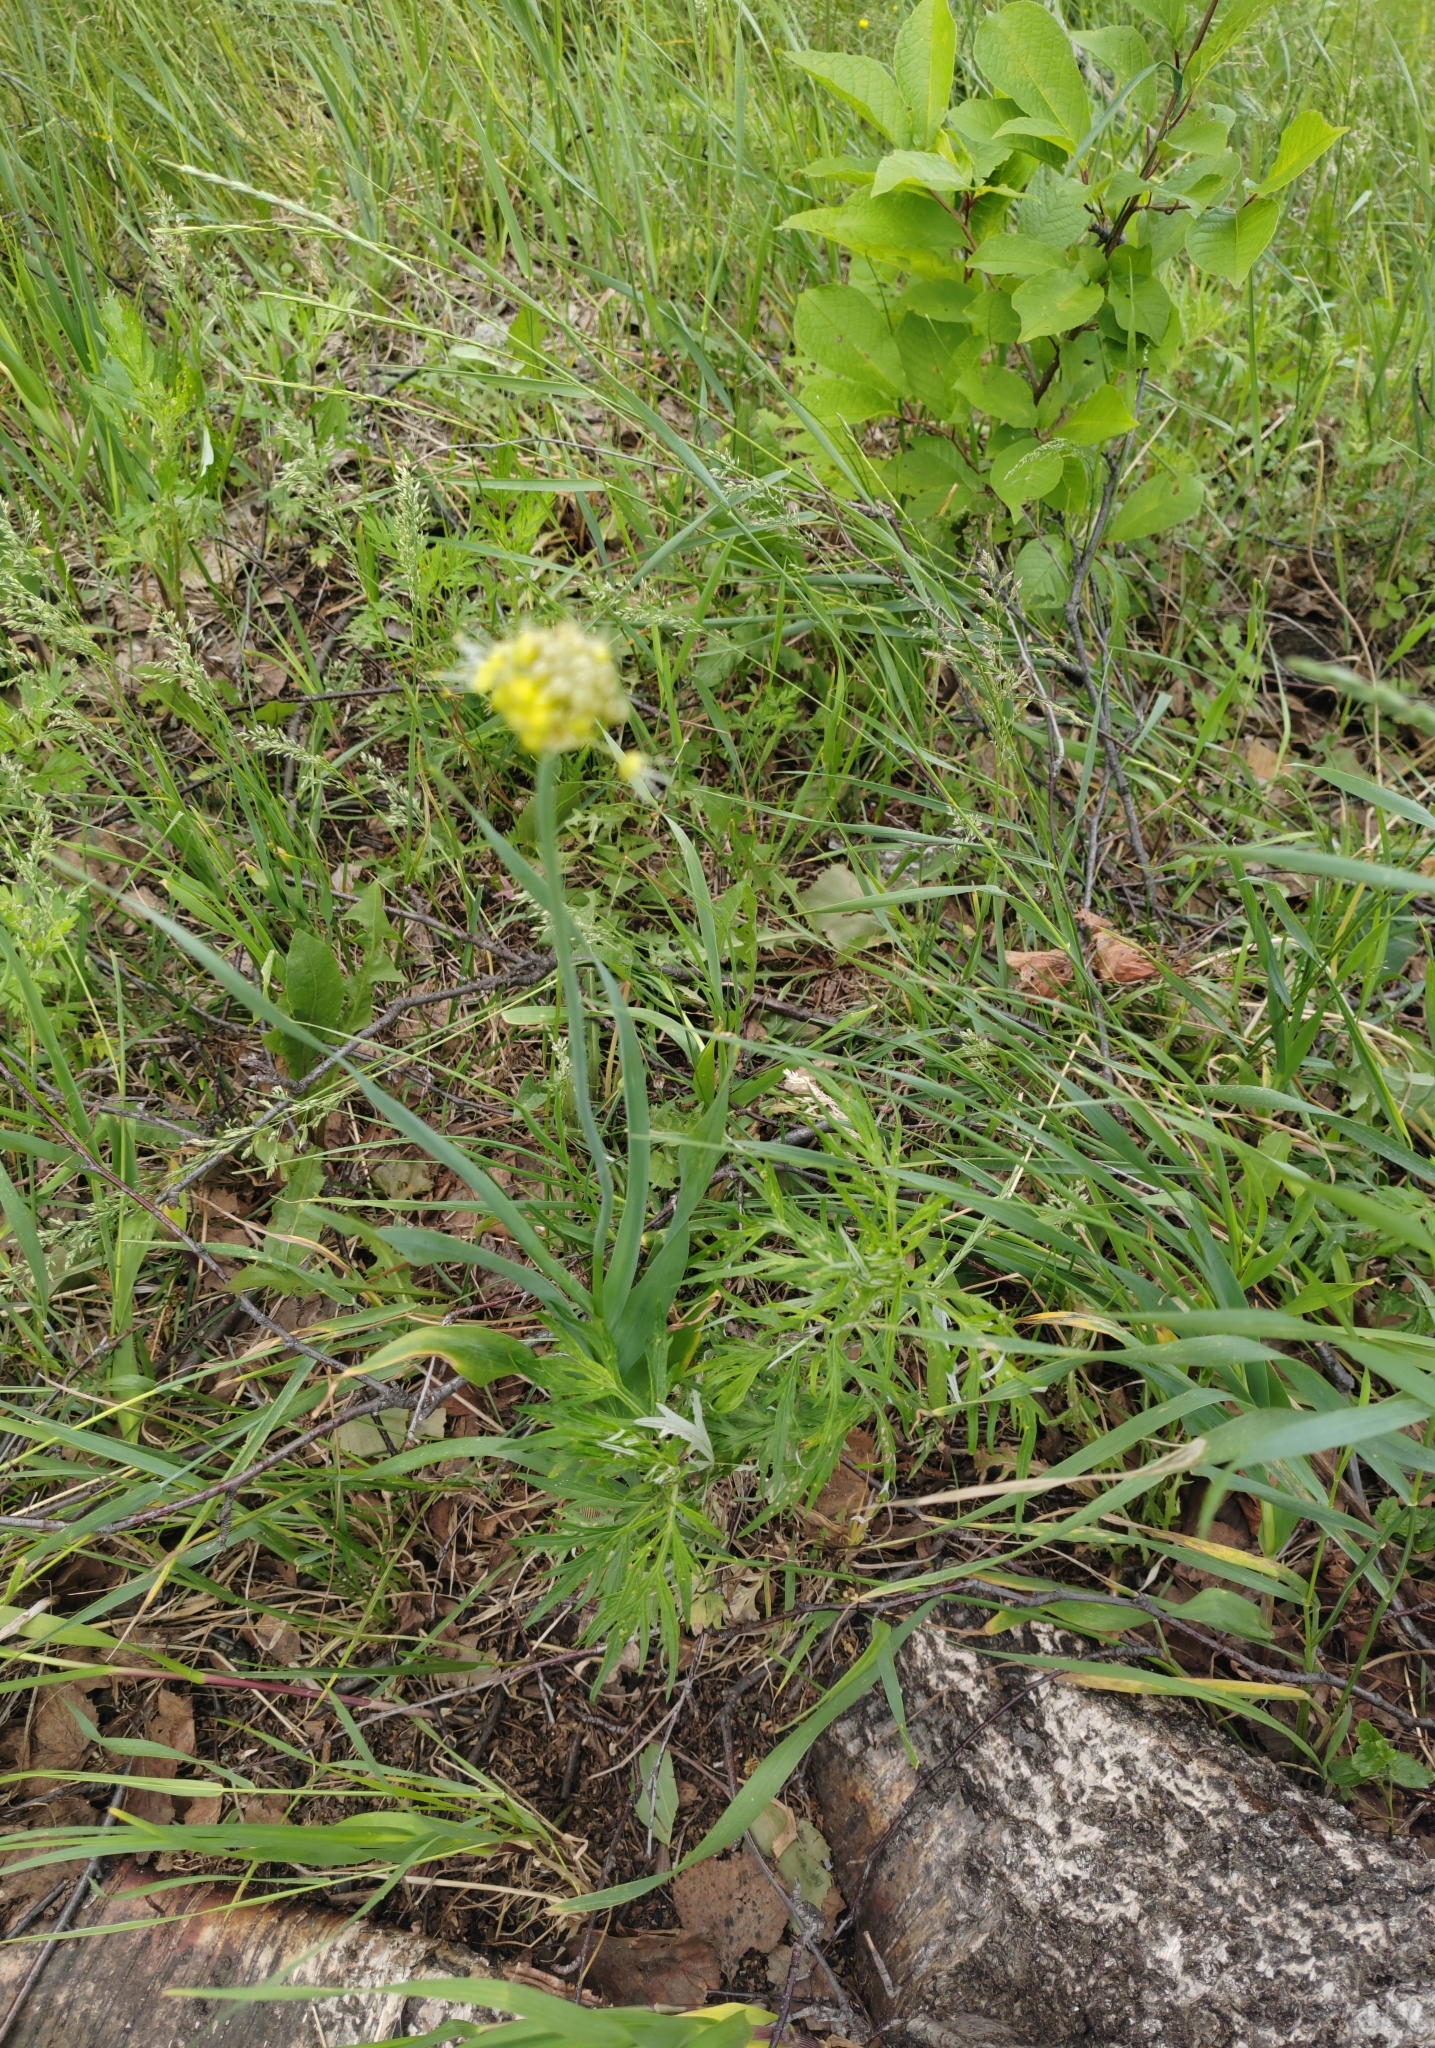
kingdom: Plantae
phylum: Tracheophyta
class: Liliopsida
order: Asparagales
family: Amaryllidaceae
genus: Allium
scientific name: Allium obliquum
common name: Oblique onion
